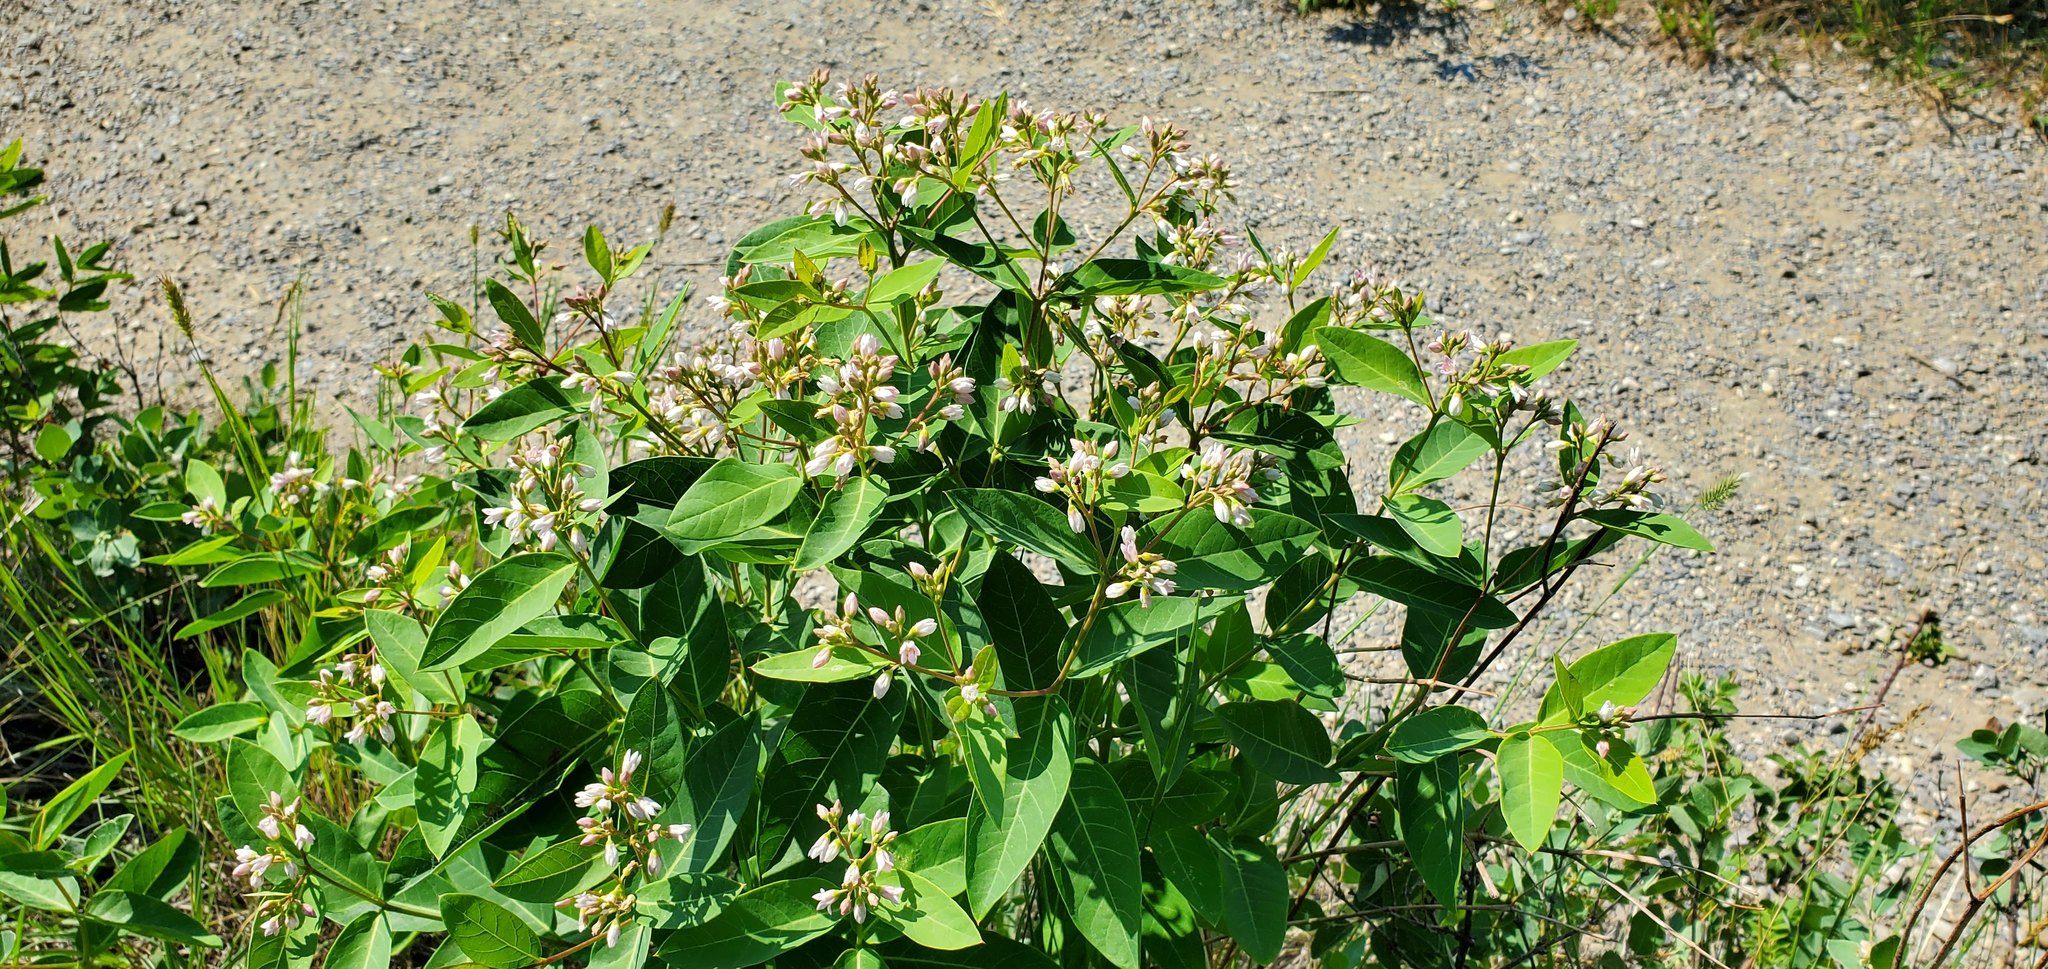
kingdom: Plantae
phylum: Tracheophyta
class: Magnoliopsida
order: Gentianales
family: Apocynaceae
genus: Apocynum
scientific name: Apocynum androsaemifolium
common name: Spreading dogbane
